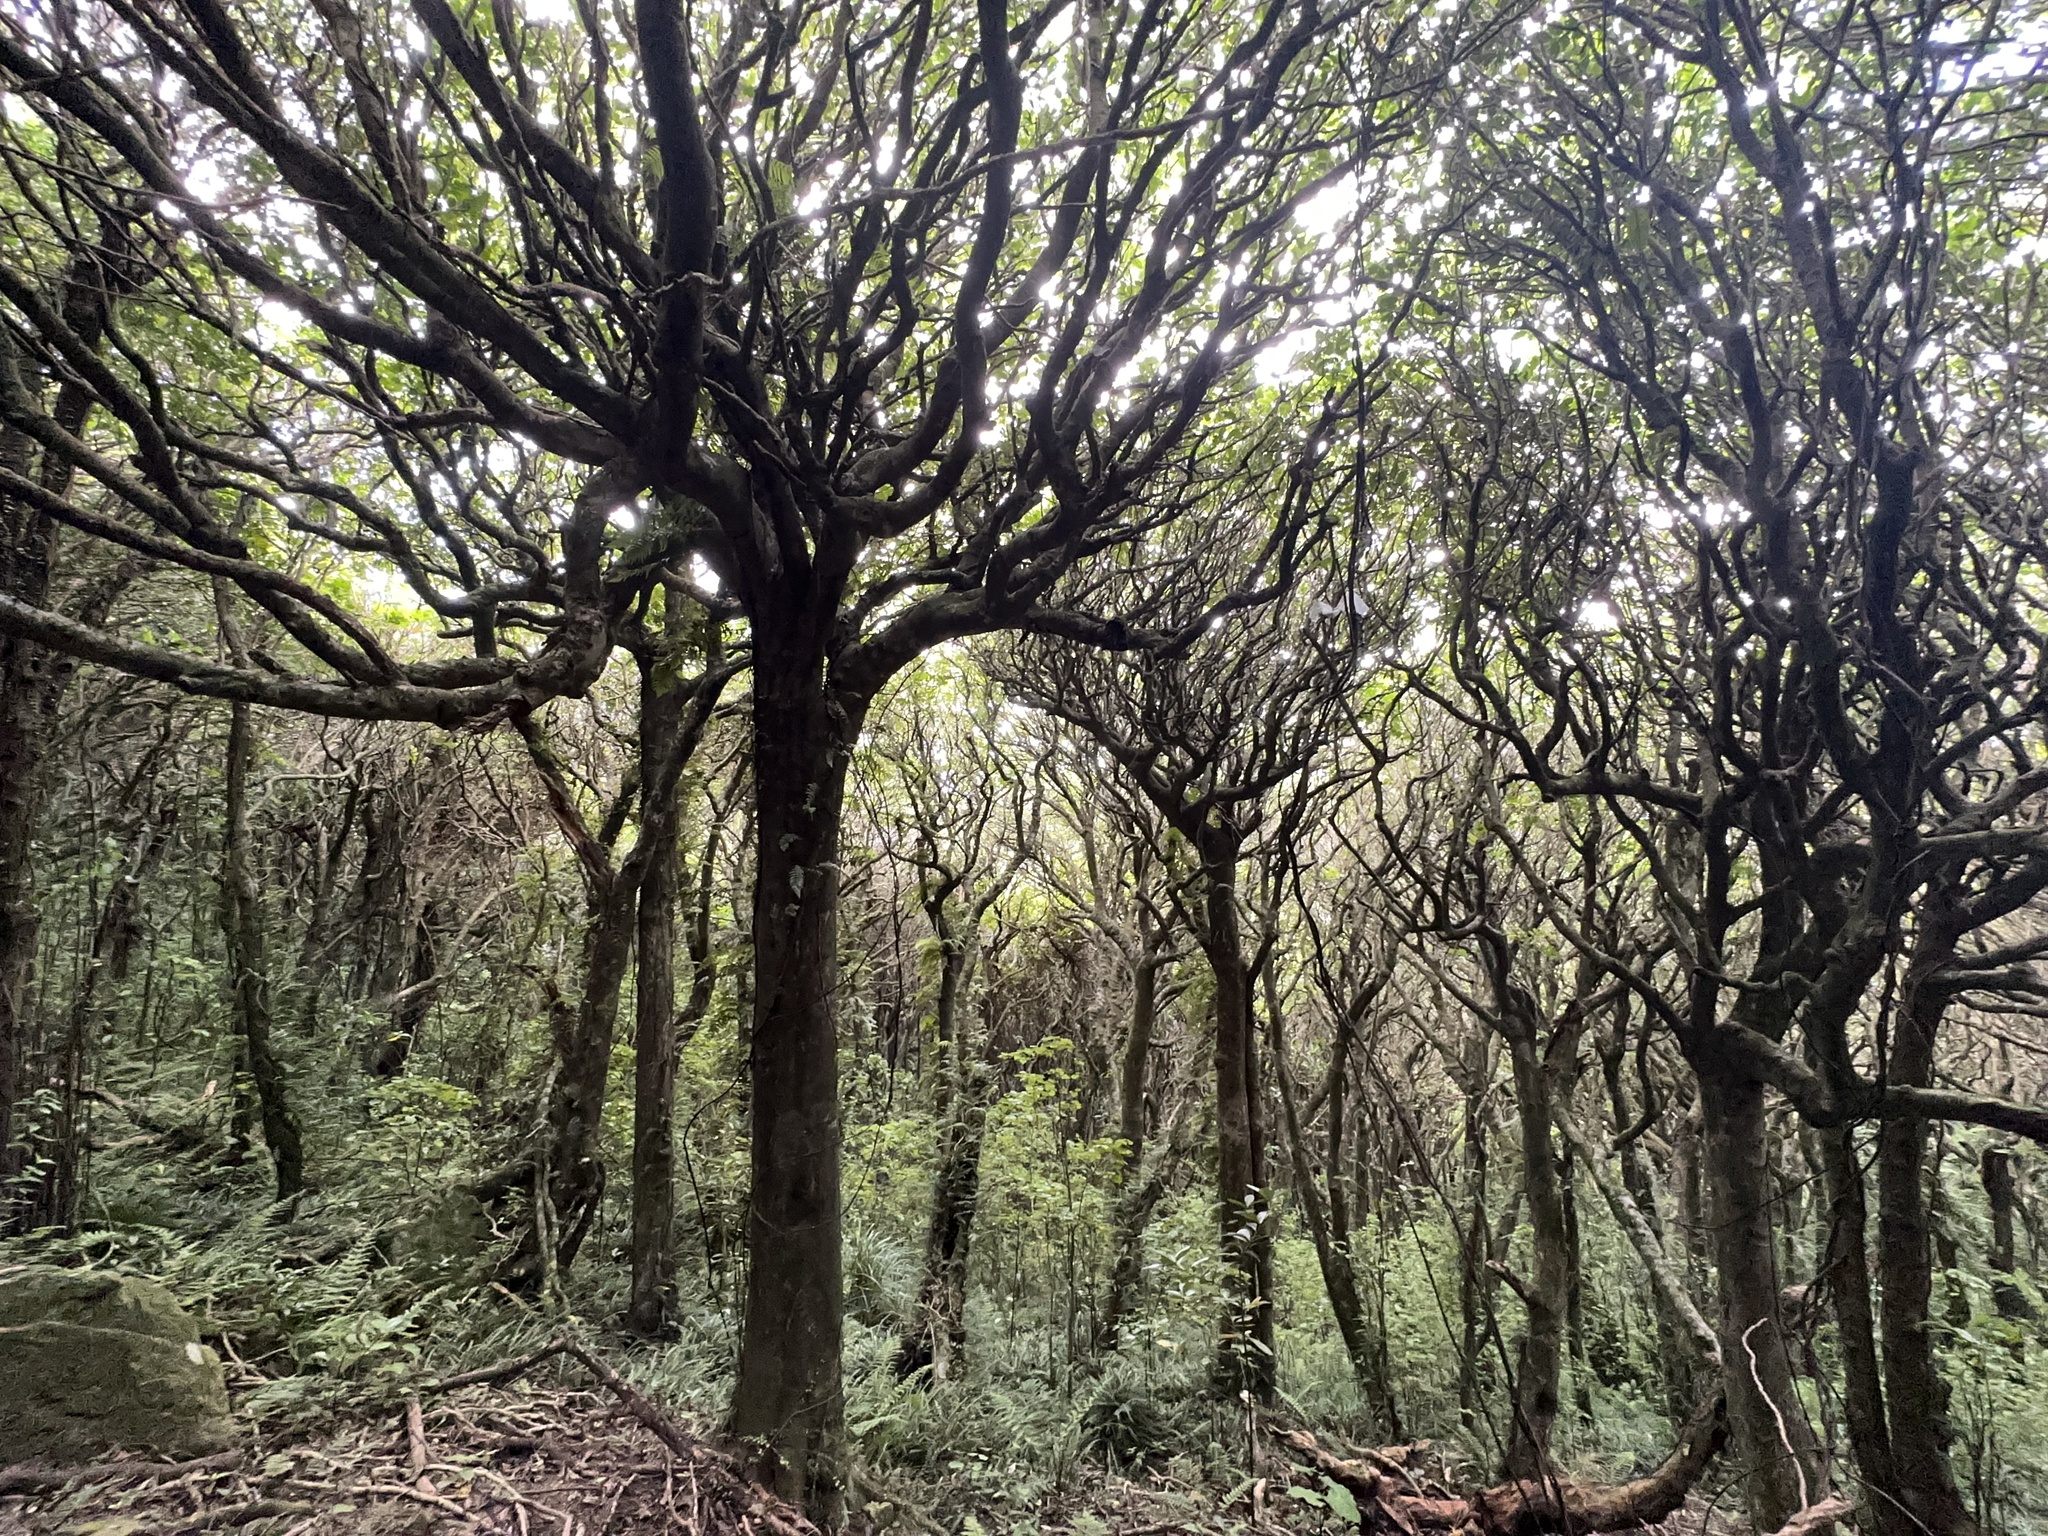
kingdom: Plantae
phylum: Tracheophyta
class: Magnoliopsida
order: Sapindales
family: Meliaceae
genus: Didymocheton
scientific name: Didymocheton spectabilis
